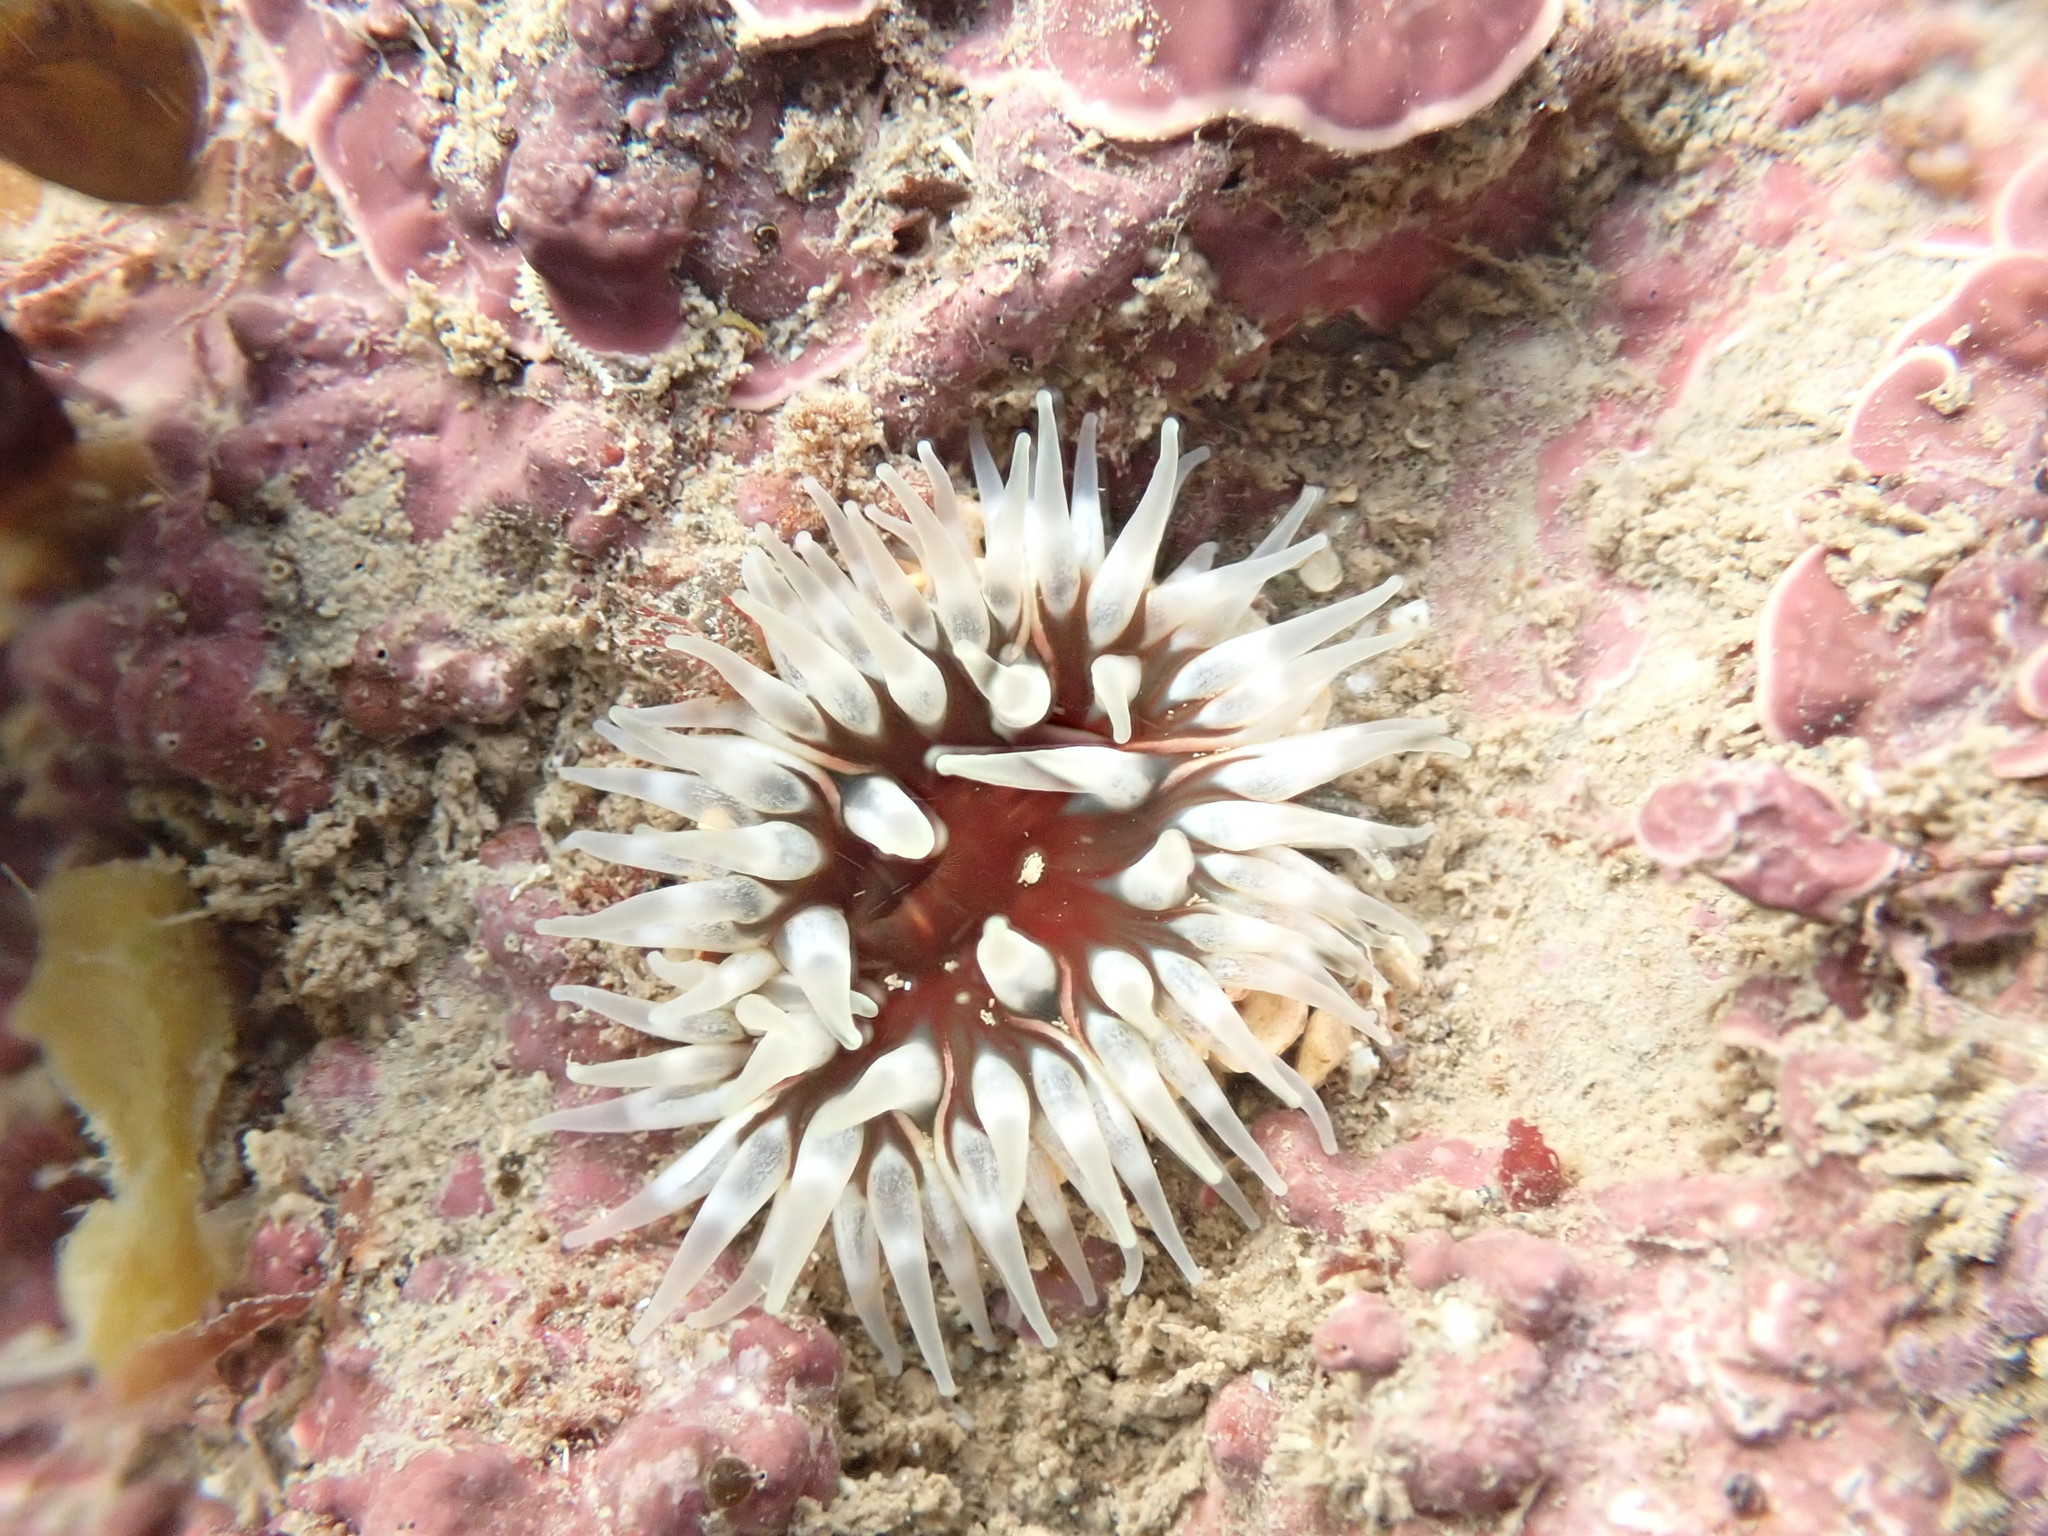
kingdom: Animalia
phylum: Cnidaria
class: Anthozoa
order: Actiniaria
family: Actiniidae
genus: Urticina
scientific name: Urticina felina
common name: Dahlia anemone
